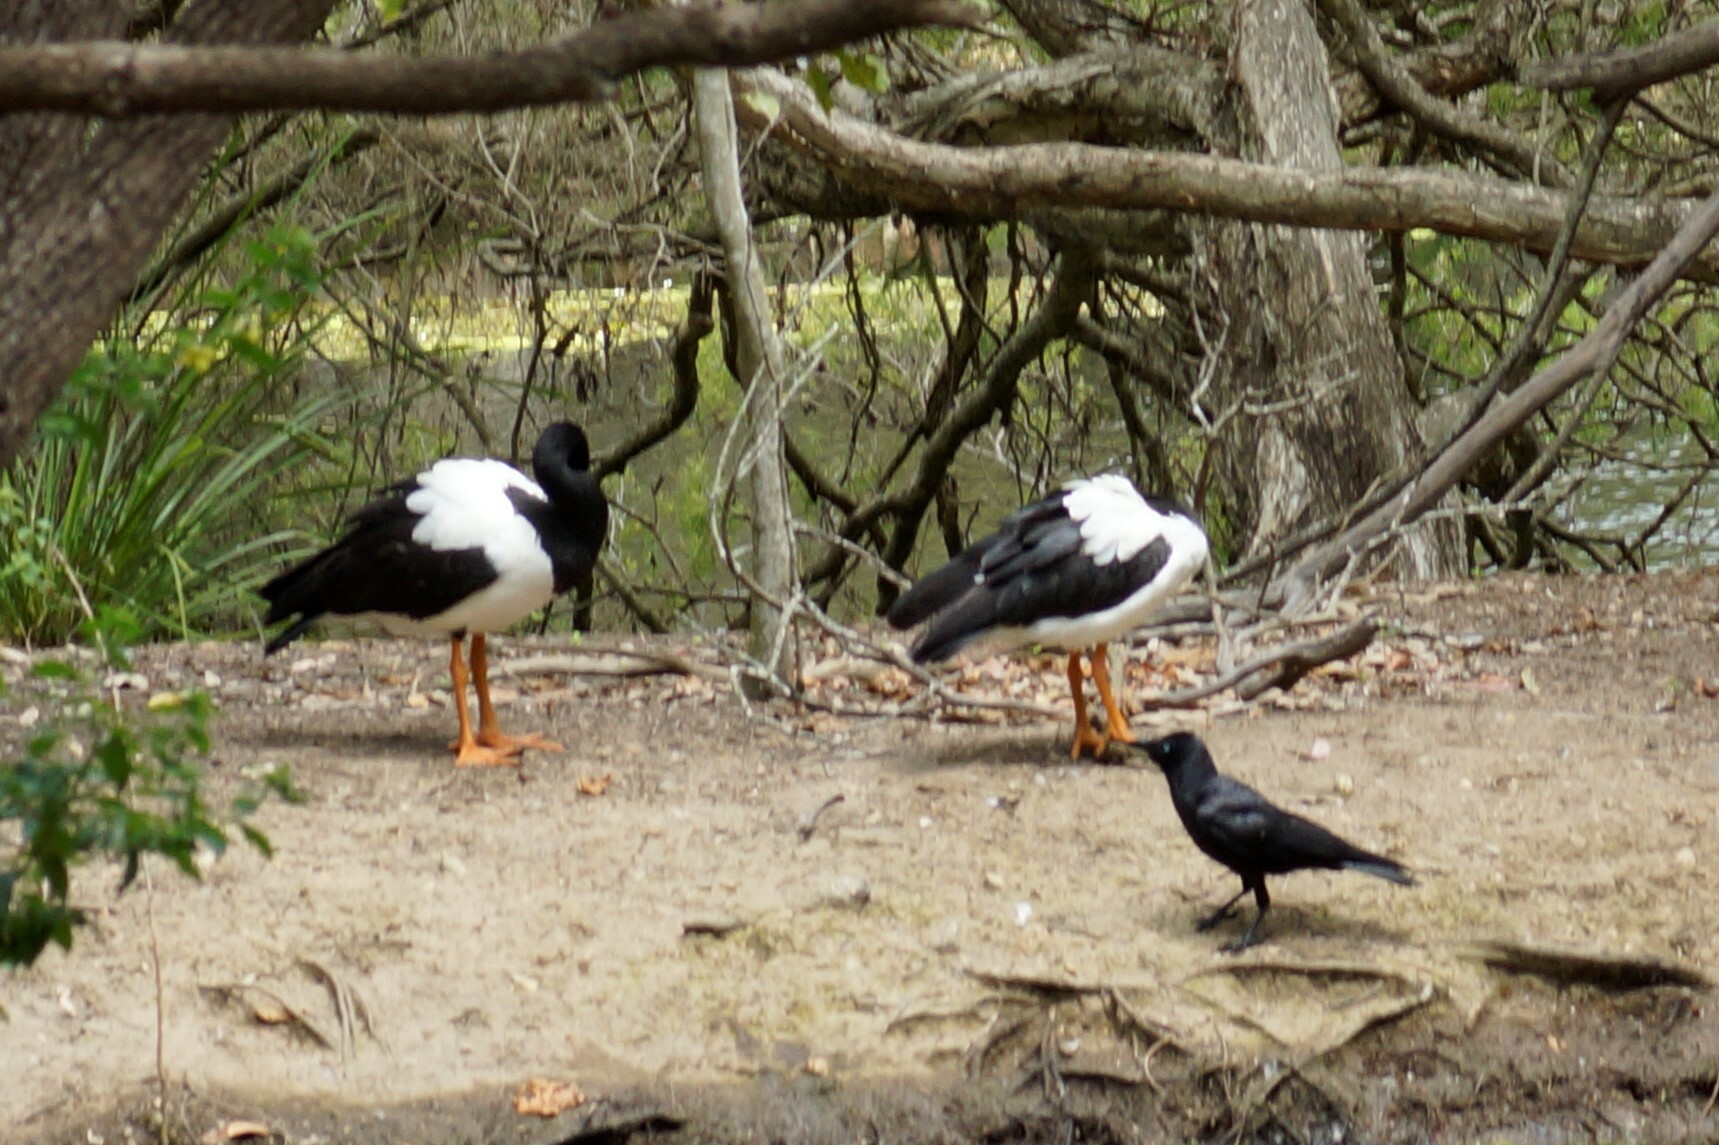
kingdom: Animalia
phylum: Chordata
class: Aves
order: Anseriformes
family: Anseranatidae
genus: Anseranas
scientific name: Anseranas semipalmata
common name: Magpie goose
